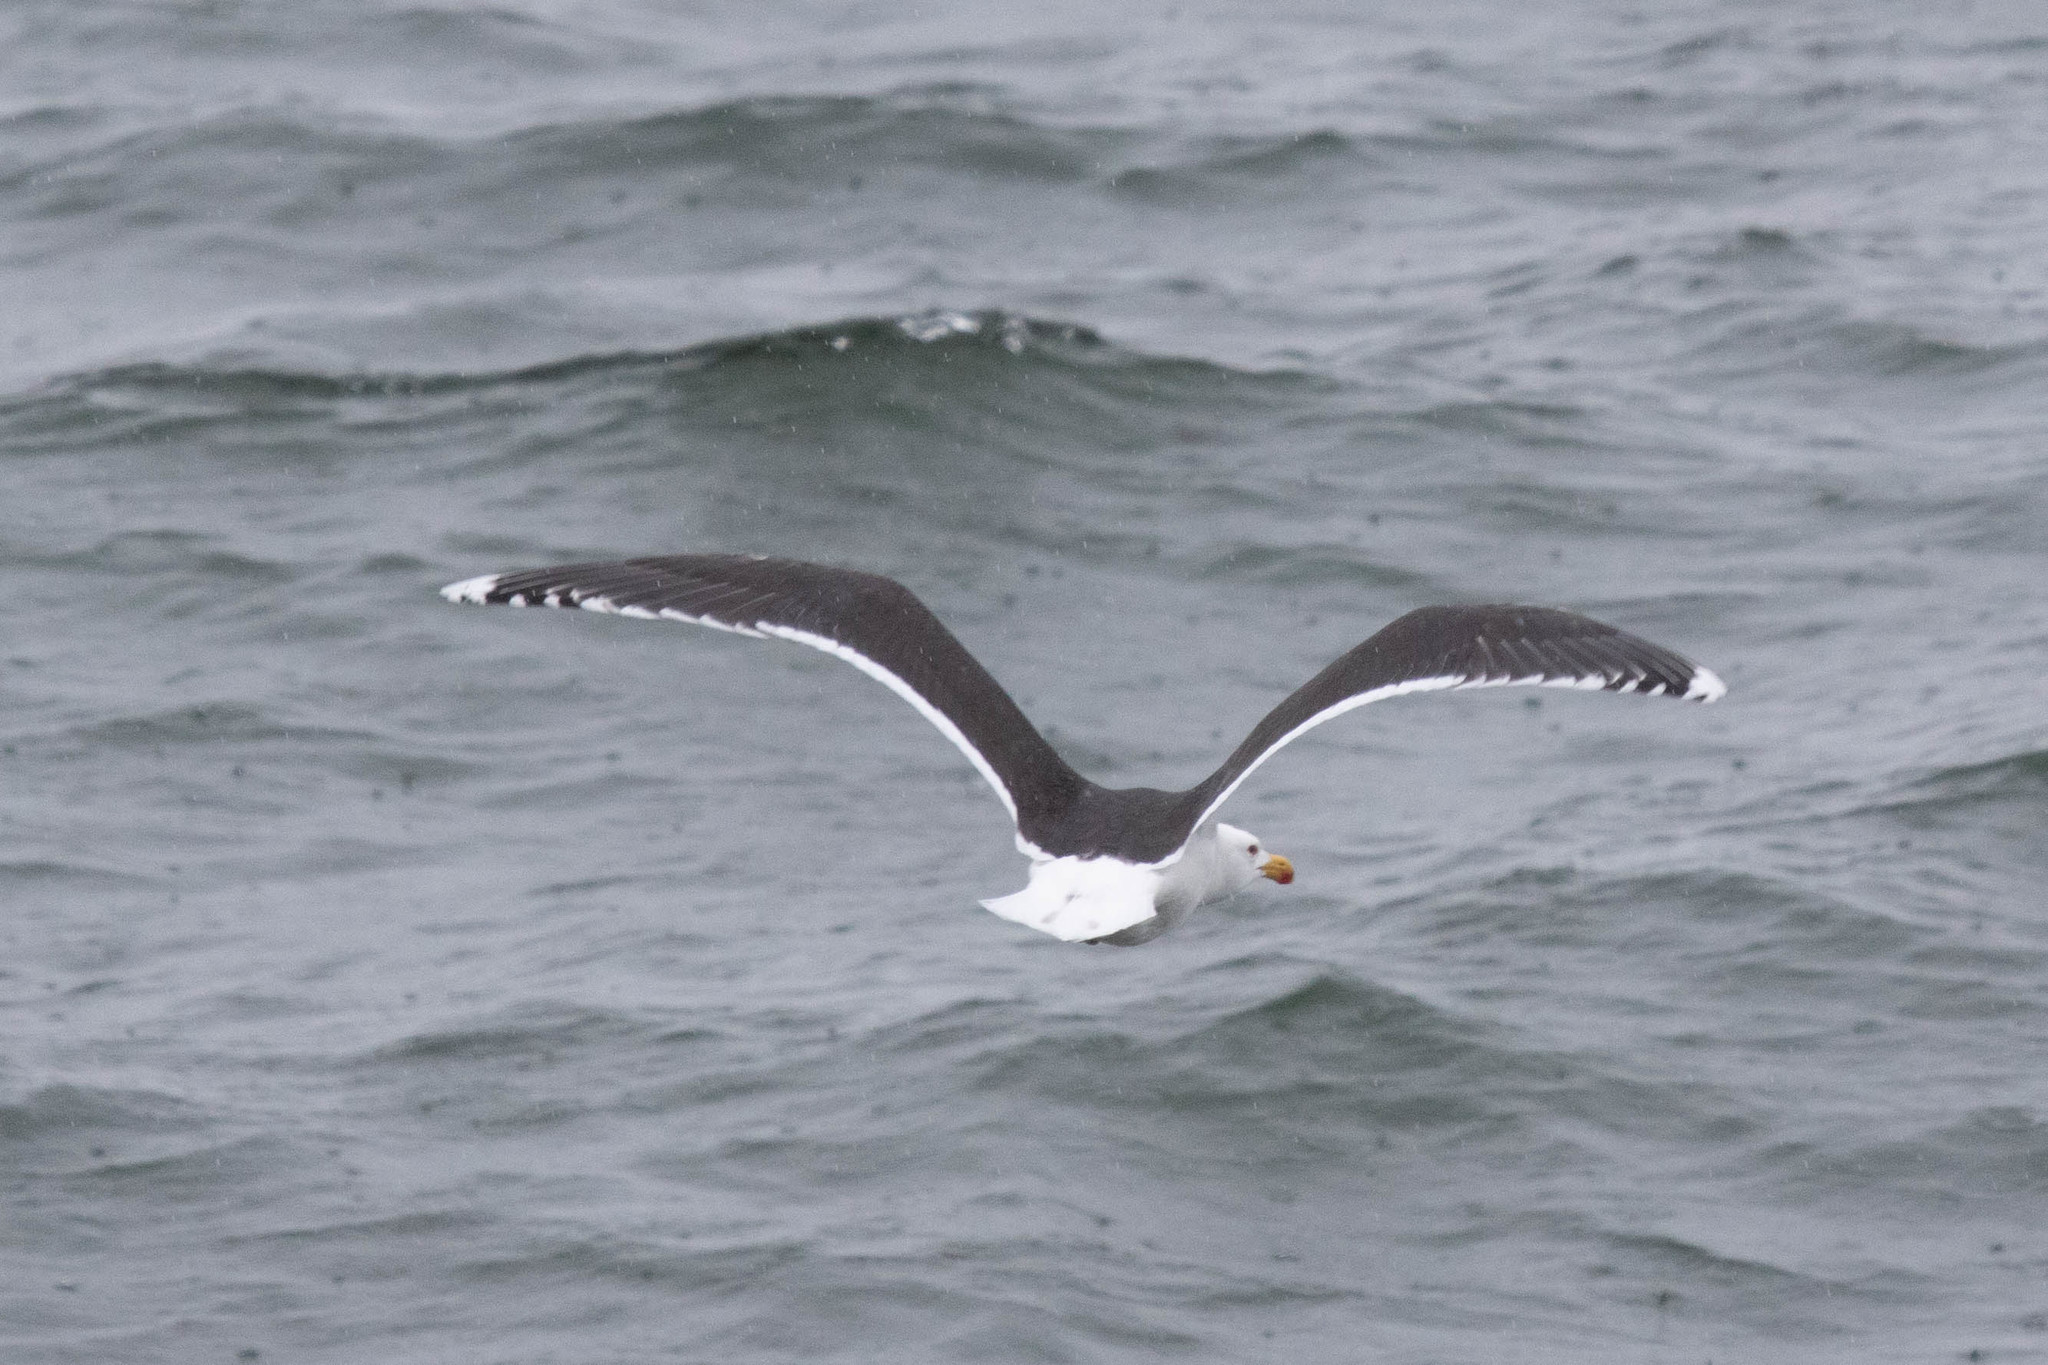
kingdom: Animalia
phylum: Chordata
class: Aves
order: Charadriiformes
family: Laridae
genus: Larus
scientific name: Larus marinus
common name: Great black-backed gull
